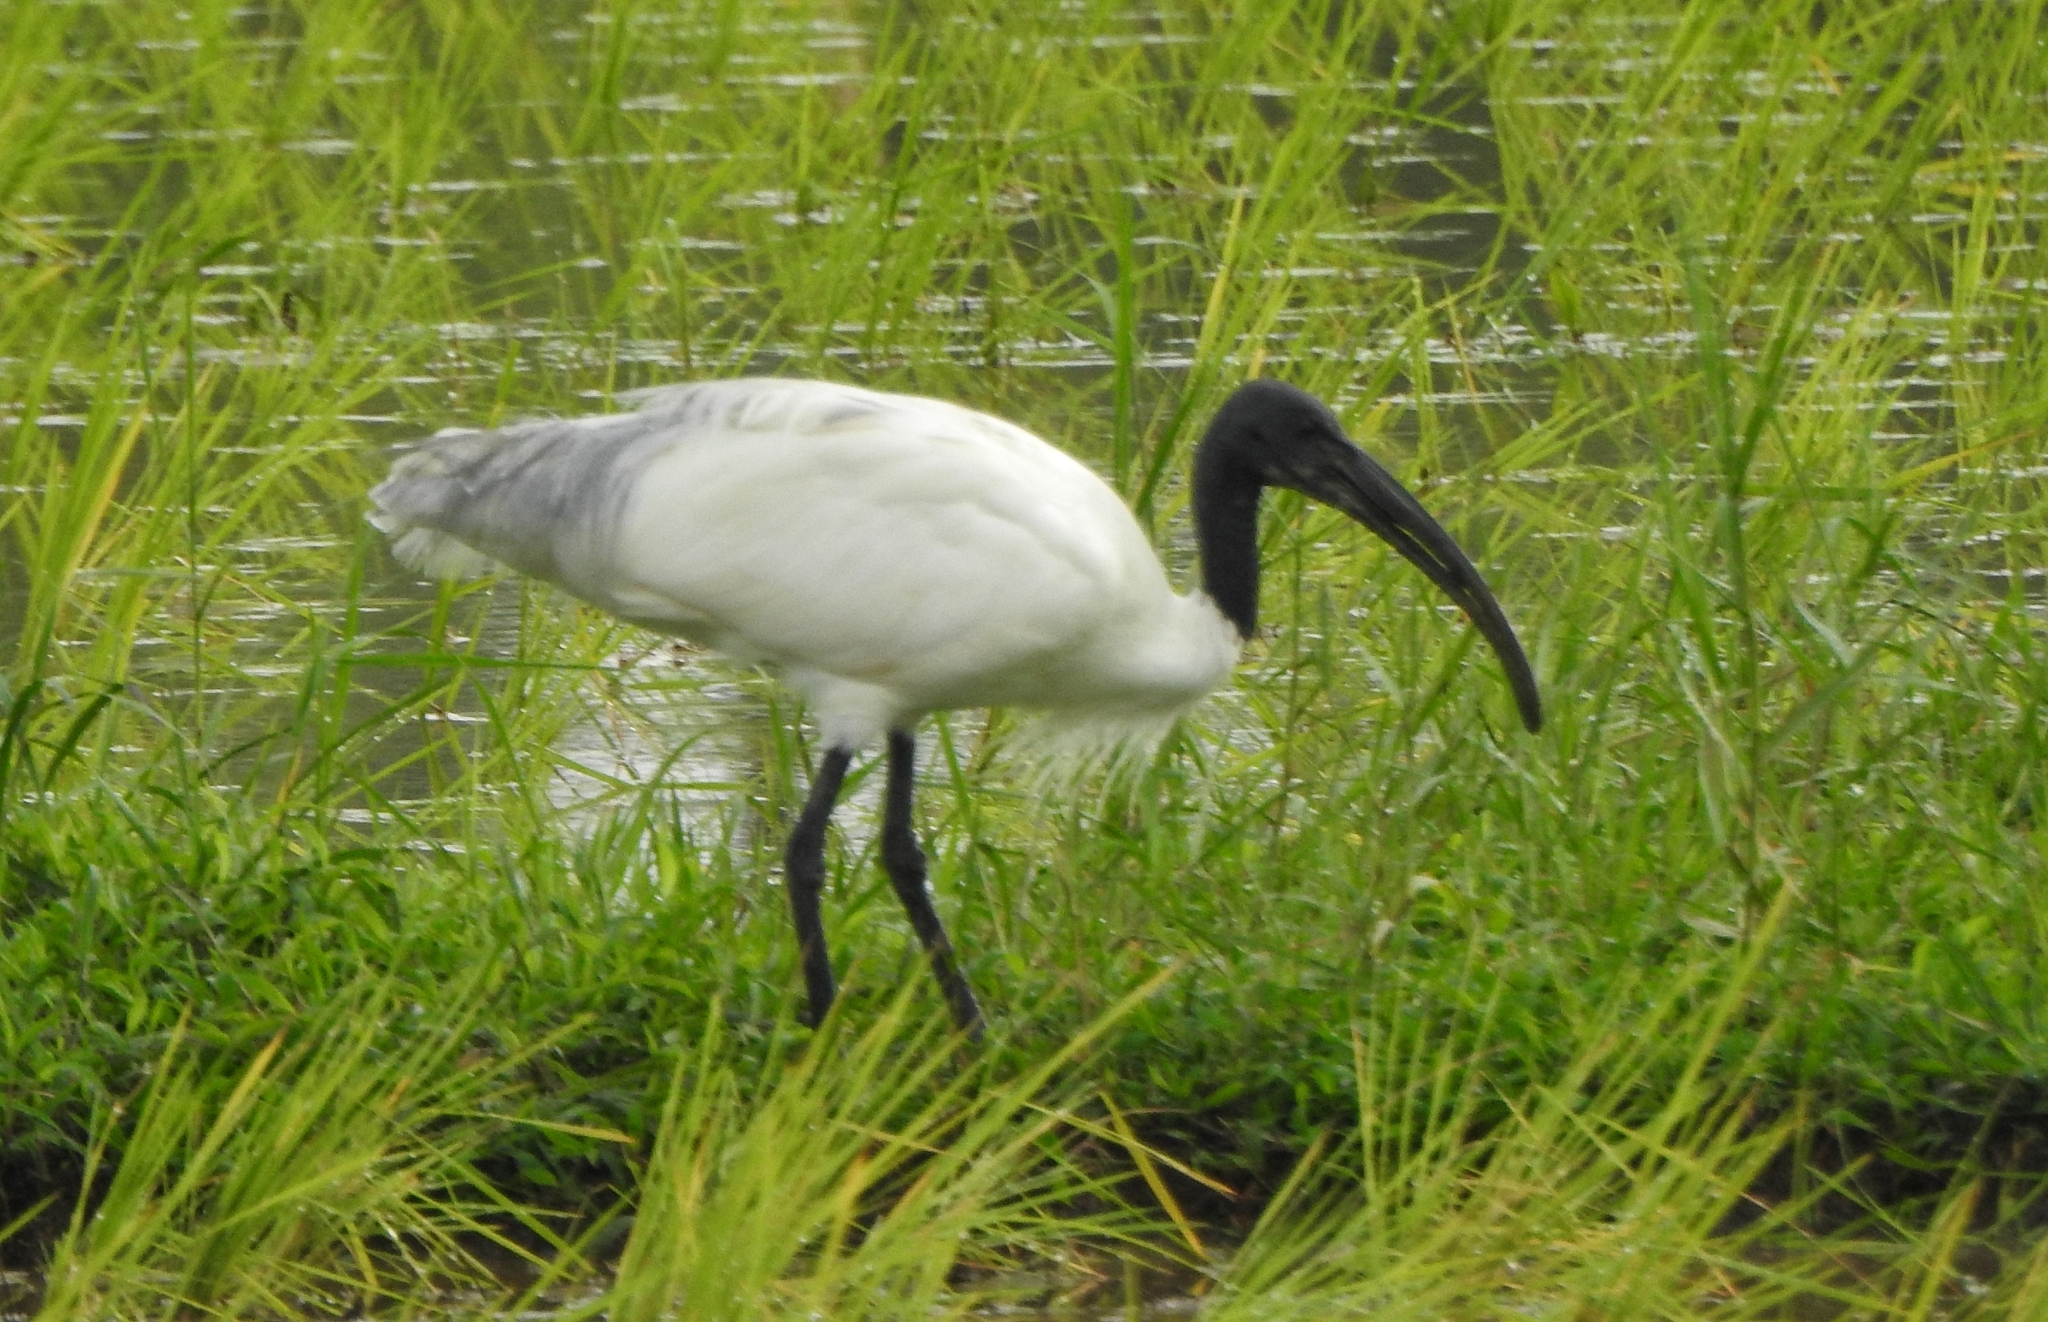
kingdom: Animalia
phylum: Chordata
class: Aves
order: Pelecaniformes
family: Threskiornithidae
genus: Threskiornis
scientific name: Threskiornis melanocephalus
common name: Black-headed ibis
